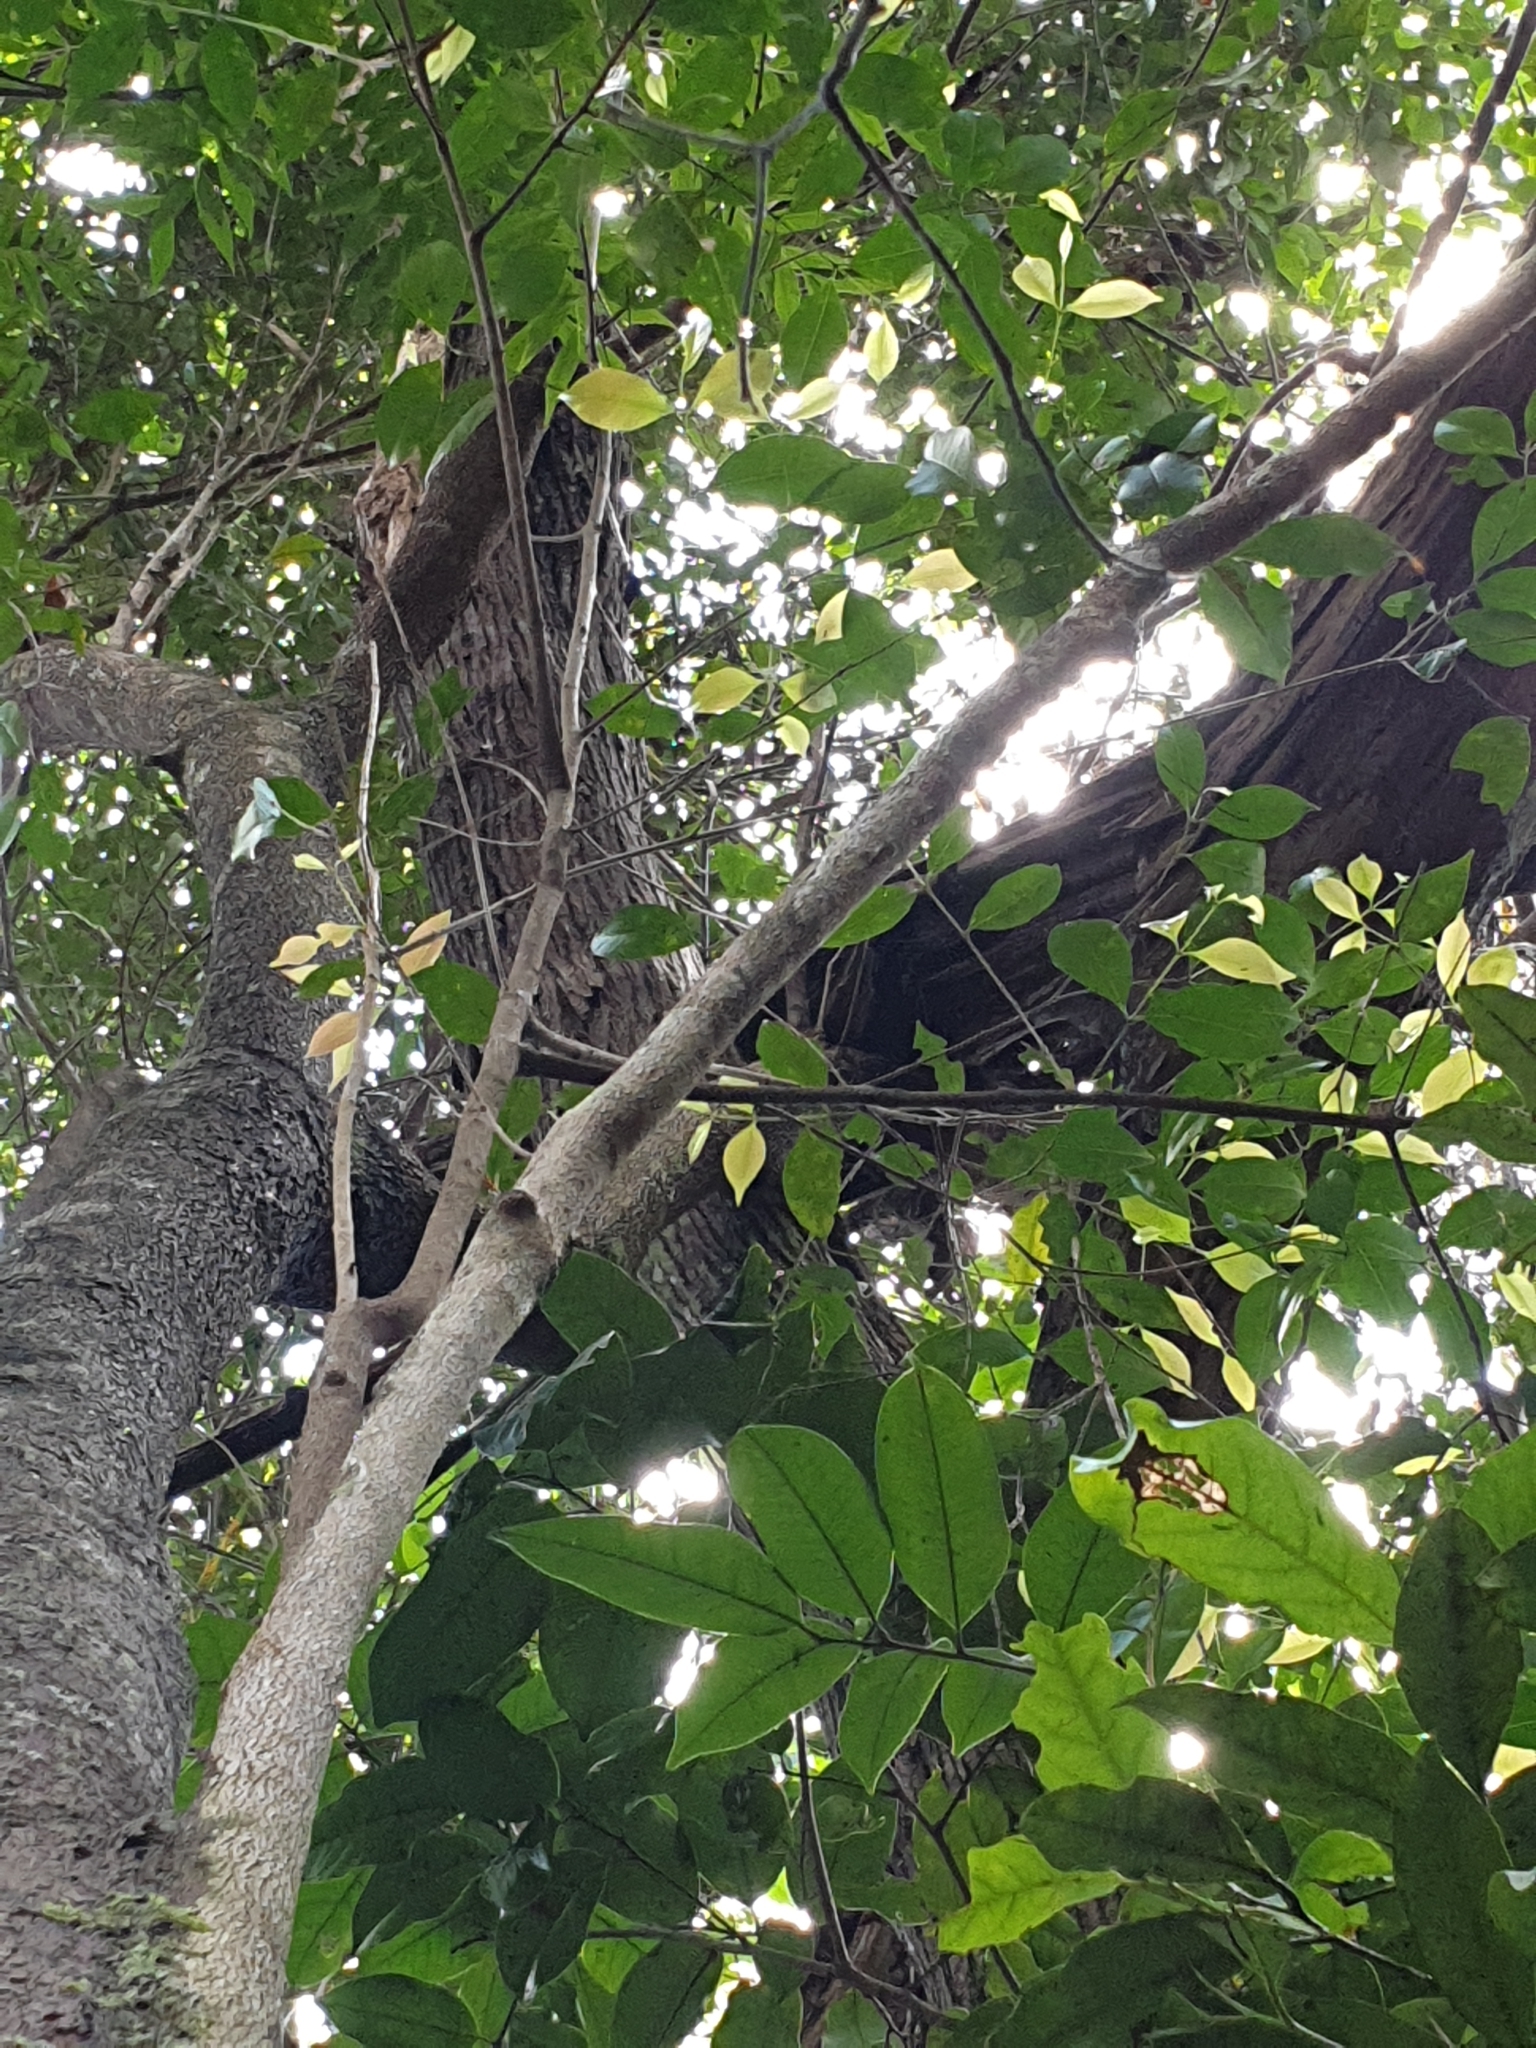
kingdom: Plantae
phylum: Tracheophyta
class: Magnoliopsida
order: Myrtales
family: Myrtaceae
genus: Syzygium
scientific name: Syzygium oleosum
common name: Oily satin-ash
